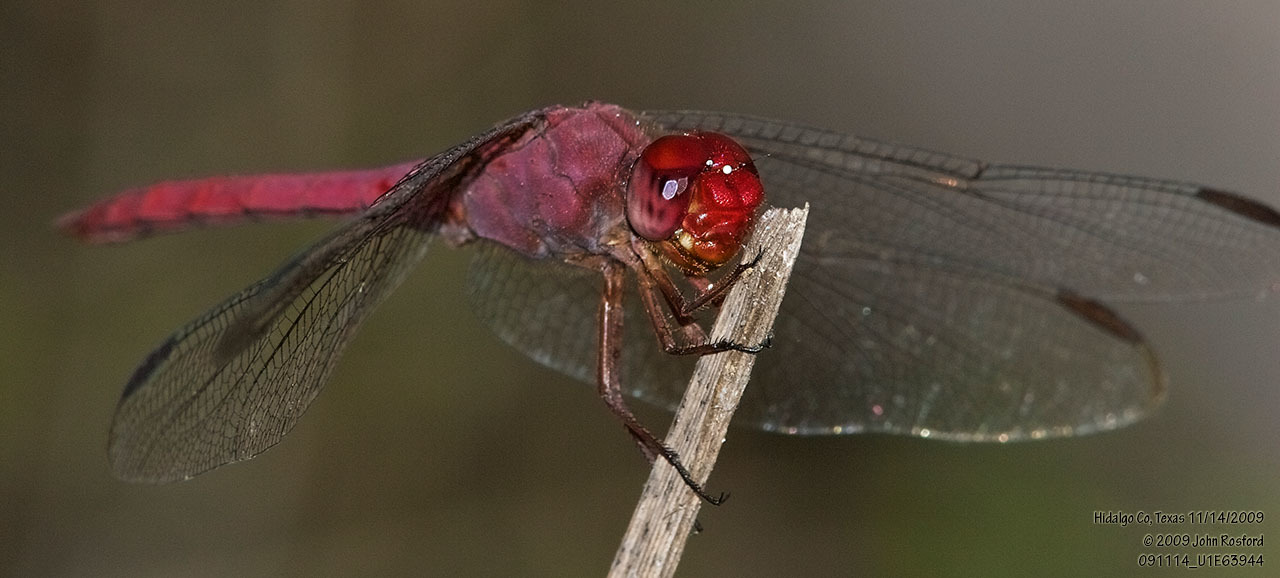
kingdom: Animalia
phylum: Arthropoda
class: Insecta
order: Odonata
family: Libellulidae
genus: Orthemis
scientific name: Orthemis discolor
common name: Carmine skimmer
